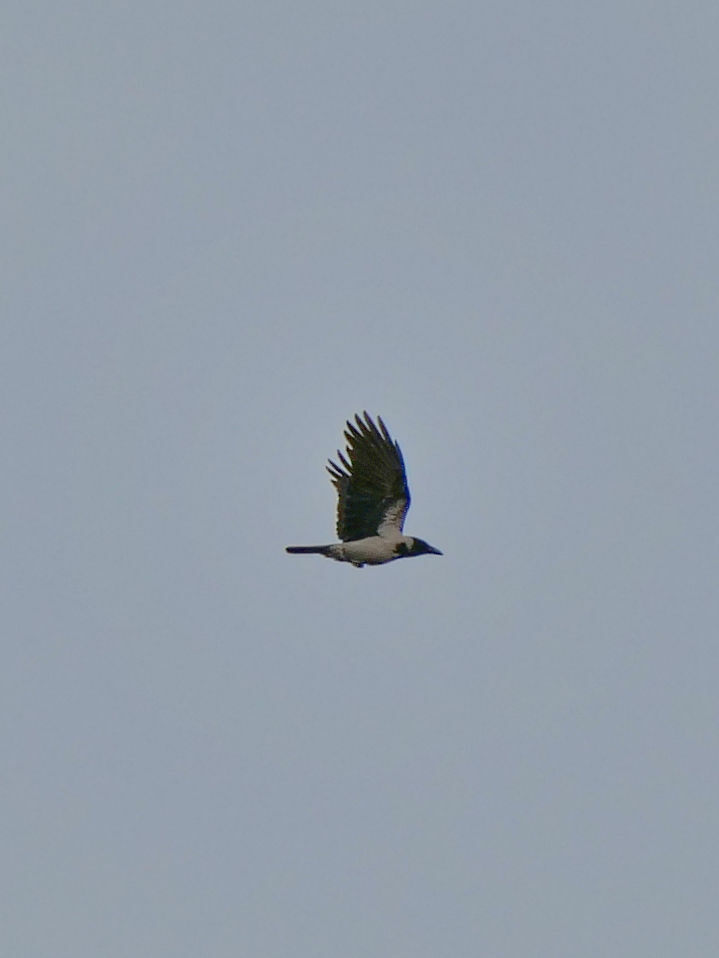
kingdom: Animalia
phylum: Chordata
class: Aves
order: Passeriformes
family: Corvidae
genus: Corvus
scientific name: Corvus cornix
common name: Hooded crow
